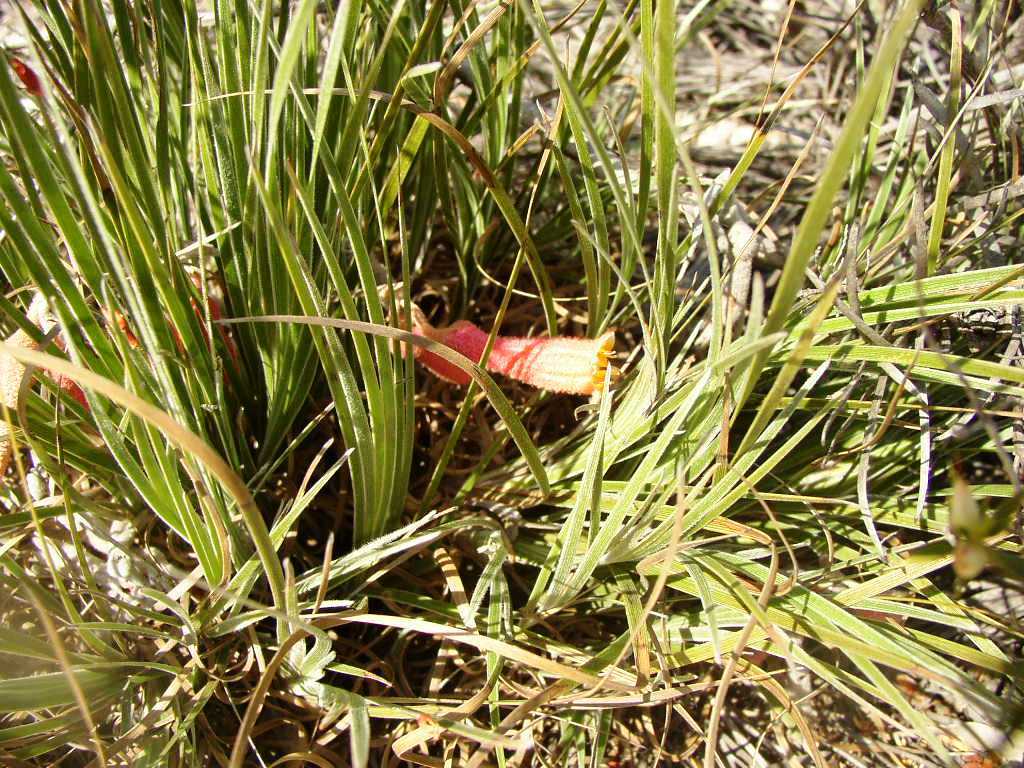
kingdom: Plantae
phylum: Tracheophyta
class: Liliopsida
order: Commelinales
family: Haemodoraceae
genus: Blancoa
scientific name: Blancoa canescens
